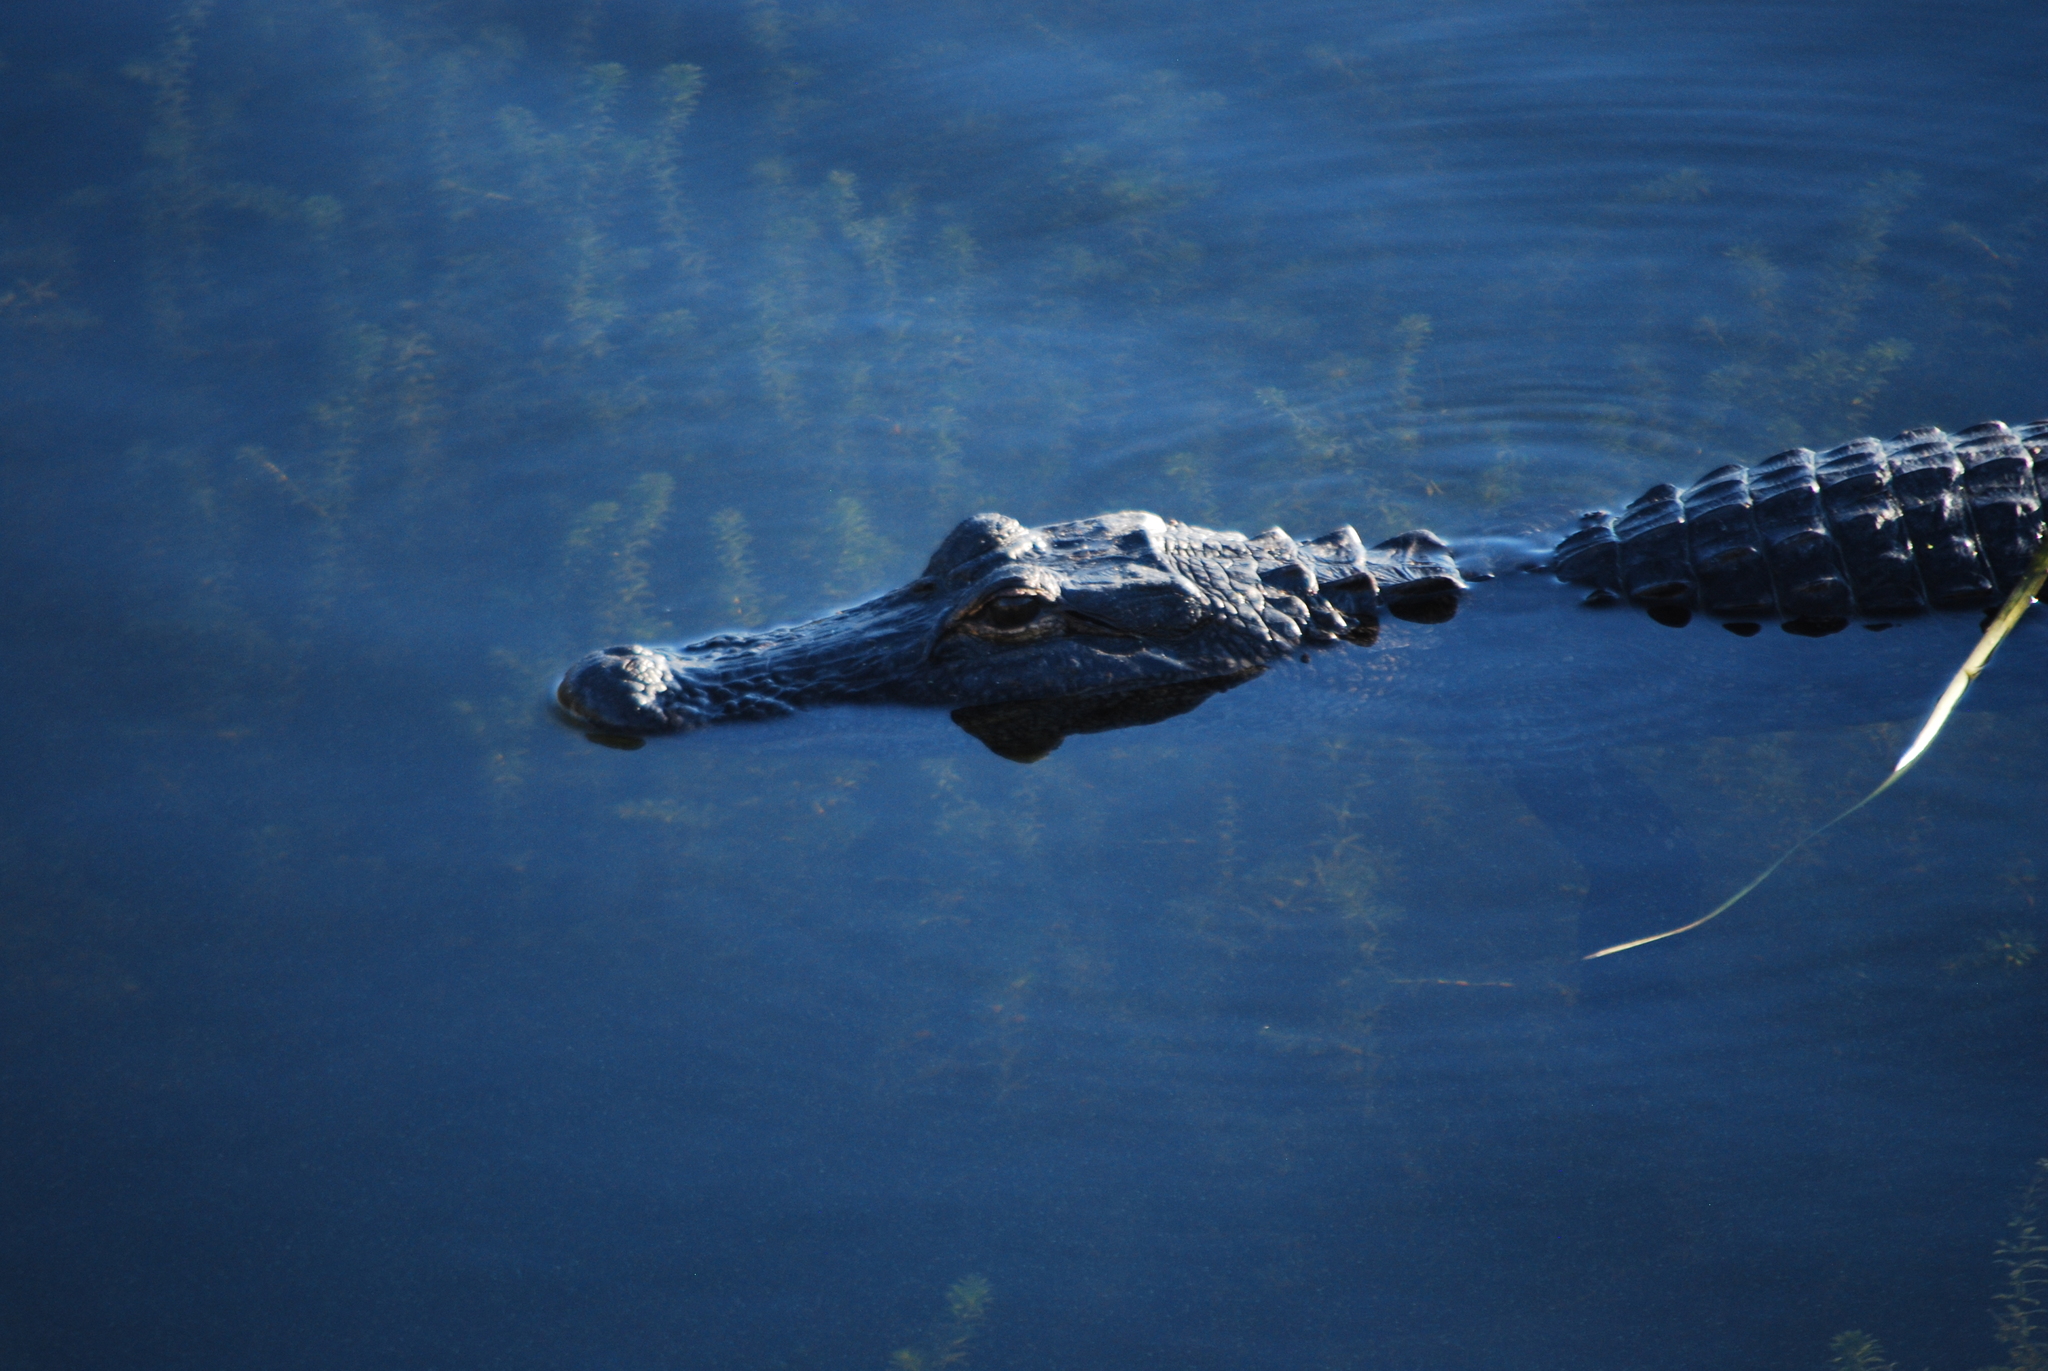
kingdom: Animalia
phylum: Chordata
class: Crocodylia
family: Alligatoridae
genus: Alligator
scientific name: Alligator mississippiensis
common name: American alligator
